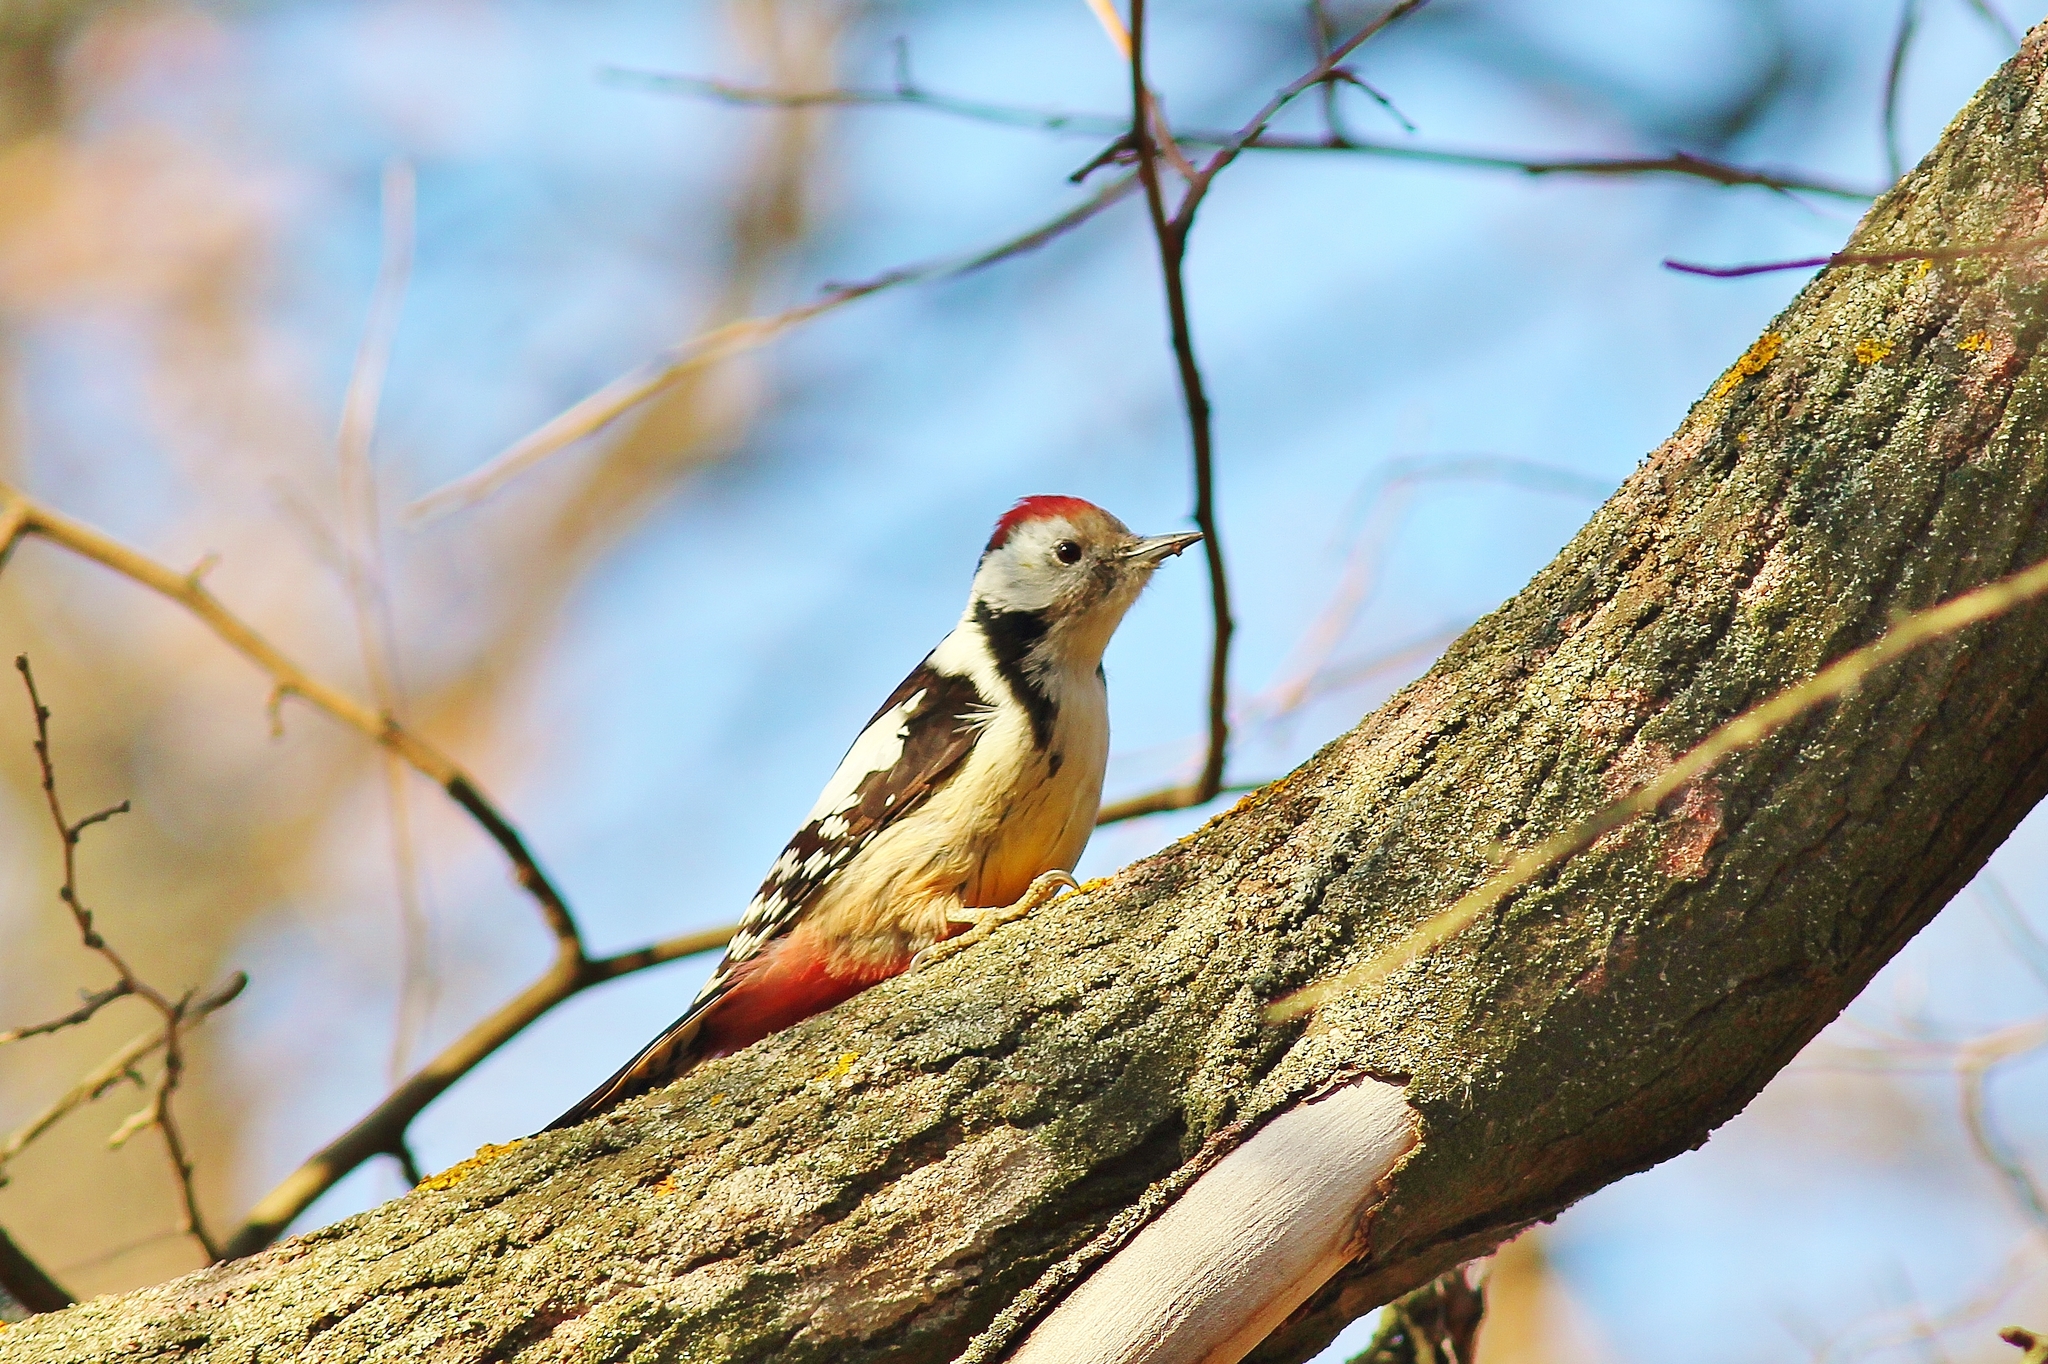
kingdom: Animalia
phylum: Chordata
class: Aves
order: Piciformes
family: Picidae
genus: Dendrocoptes
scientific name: Dendrocoptes medius
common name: Middle spotted woodpecker
